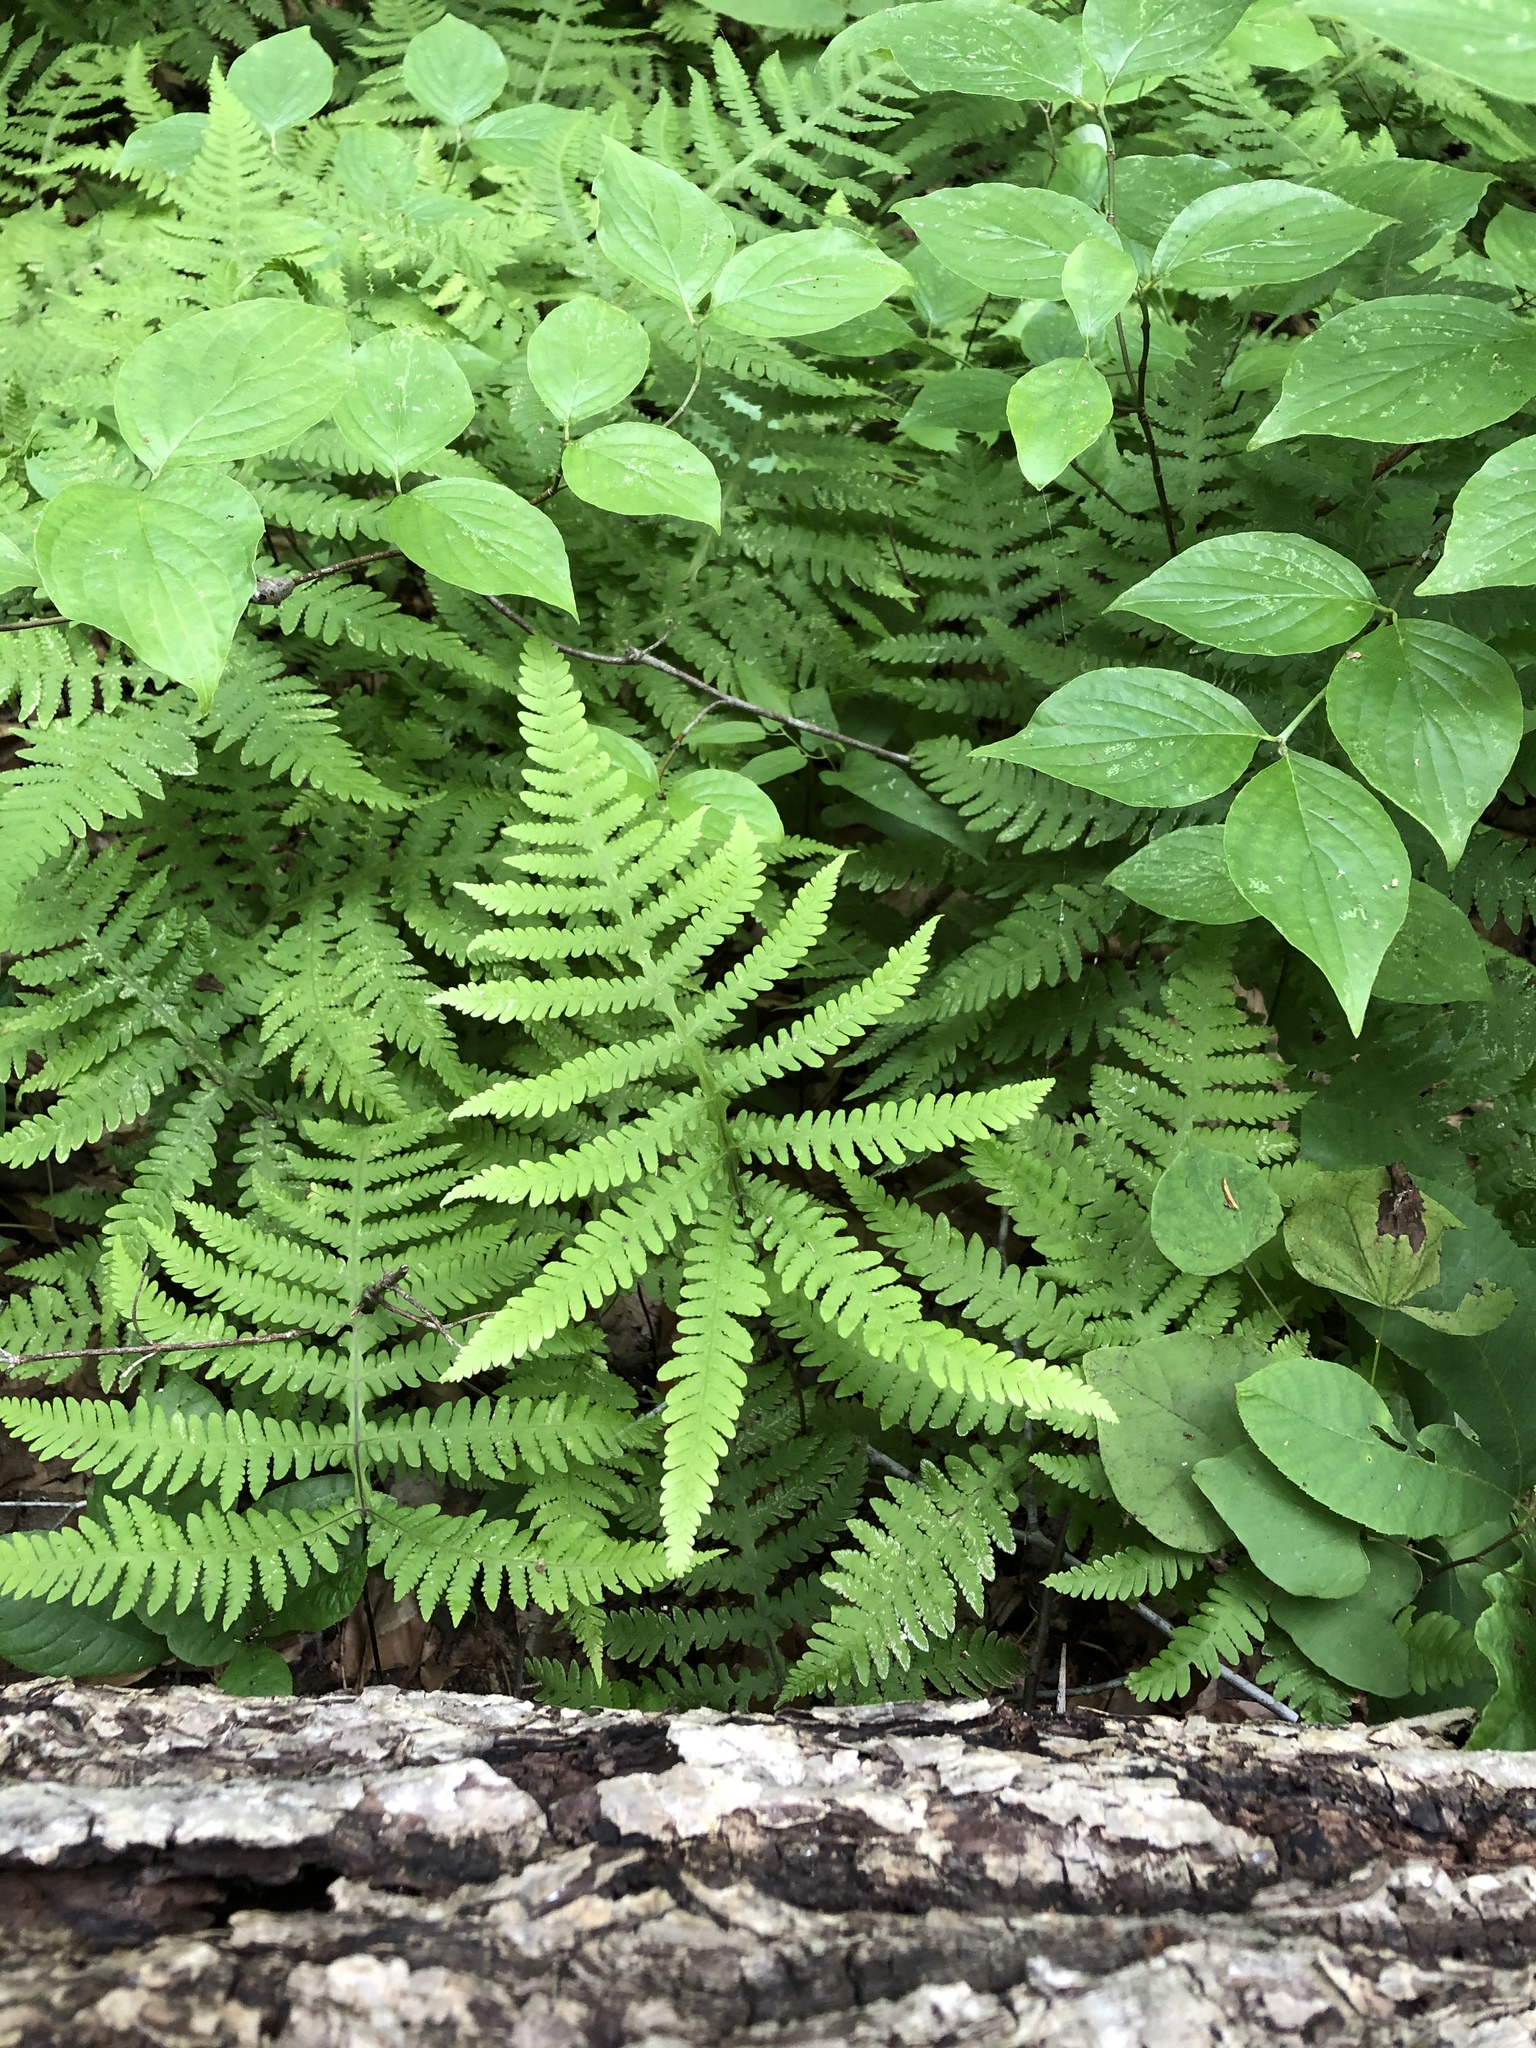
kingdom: Plantae
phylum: Tracheophyta
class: Polypodiopsida
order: Polypodiales
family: Thelypteridaceae
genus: Phegopteris
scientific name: Phegopteris hexagonoptera
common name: Broad beech fern
